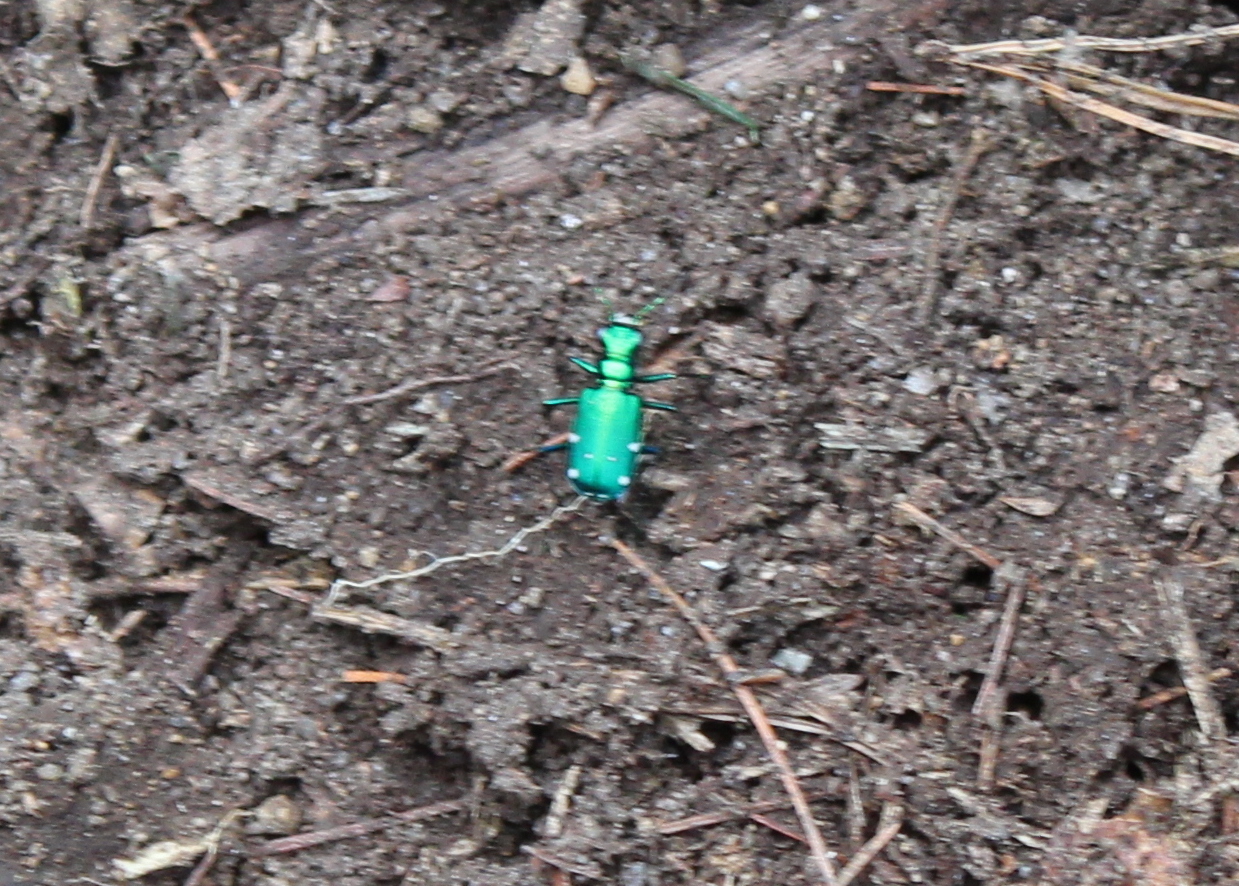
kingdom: Animalia
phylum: Arthropoda
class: Insecta
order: Coleoptera
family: Carabidae
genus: Cicindela
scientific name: Cicindela sexguttata
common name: Six-spotted tiger beetle
